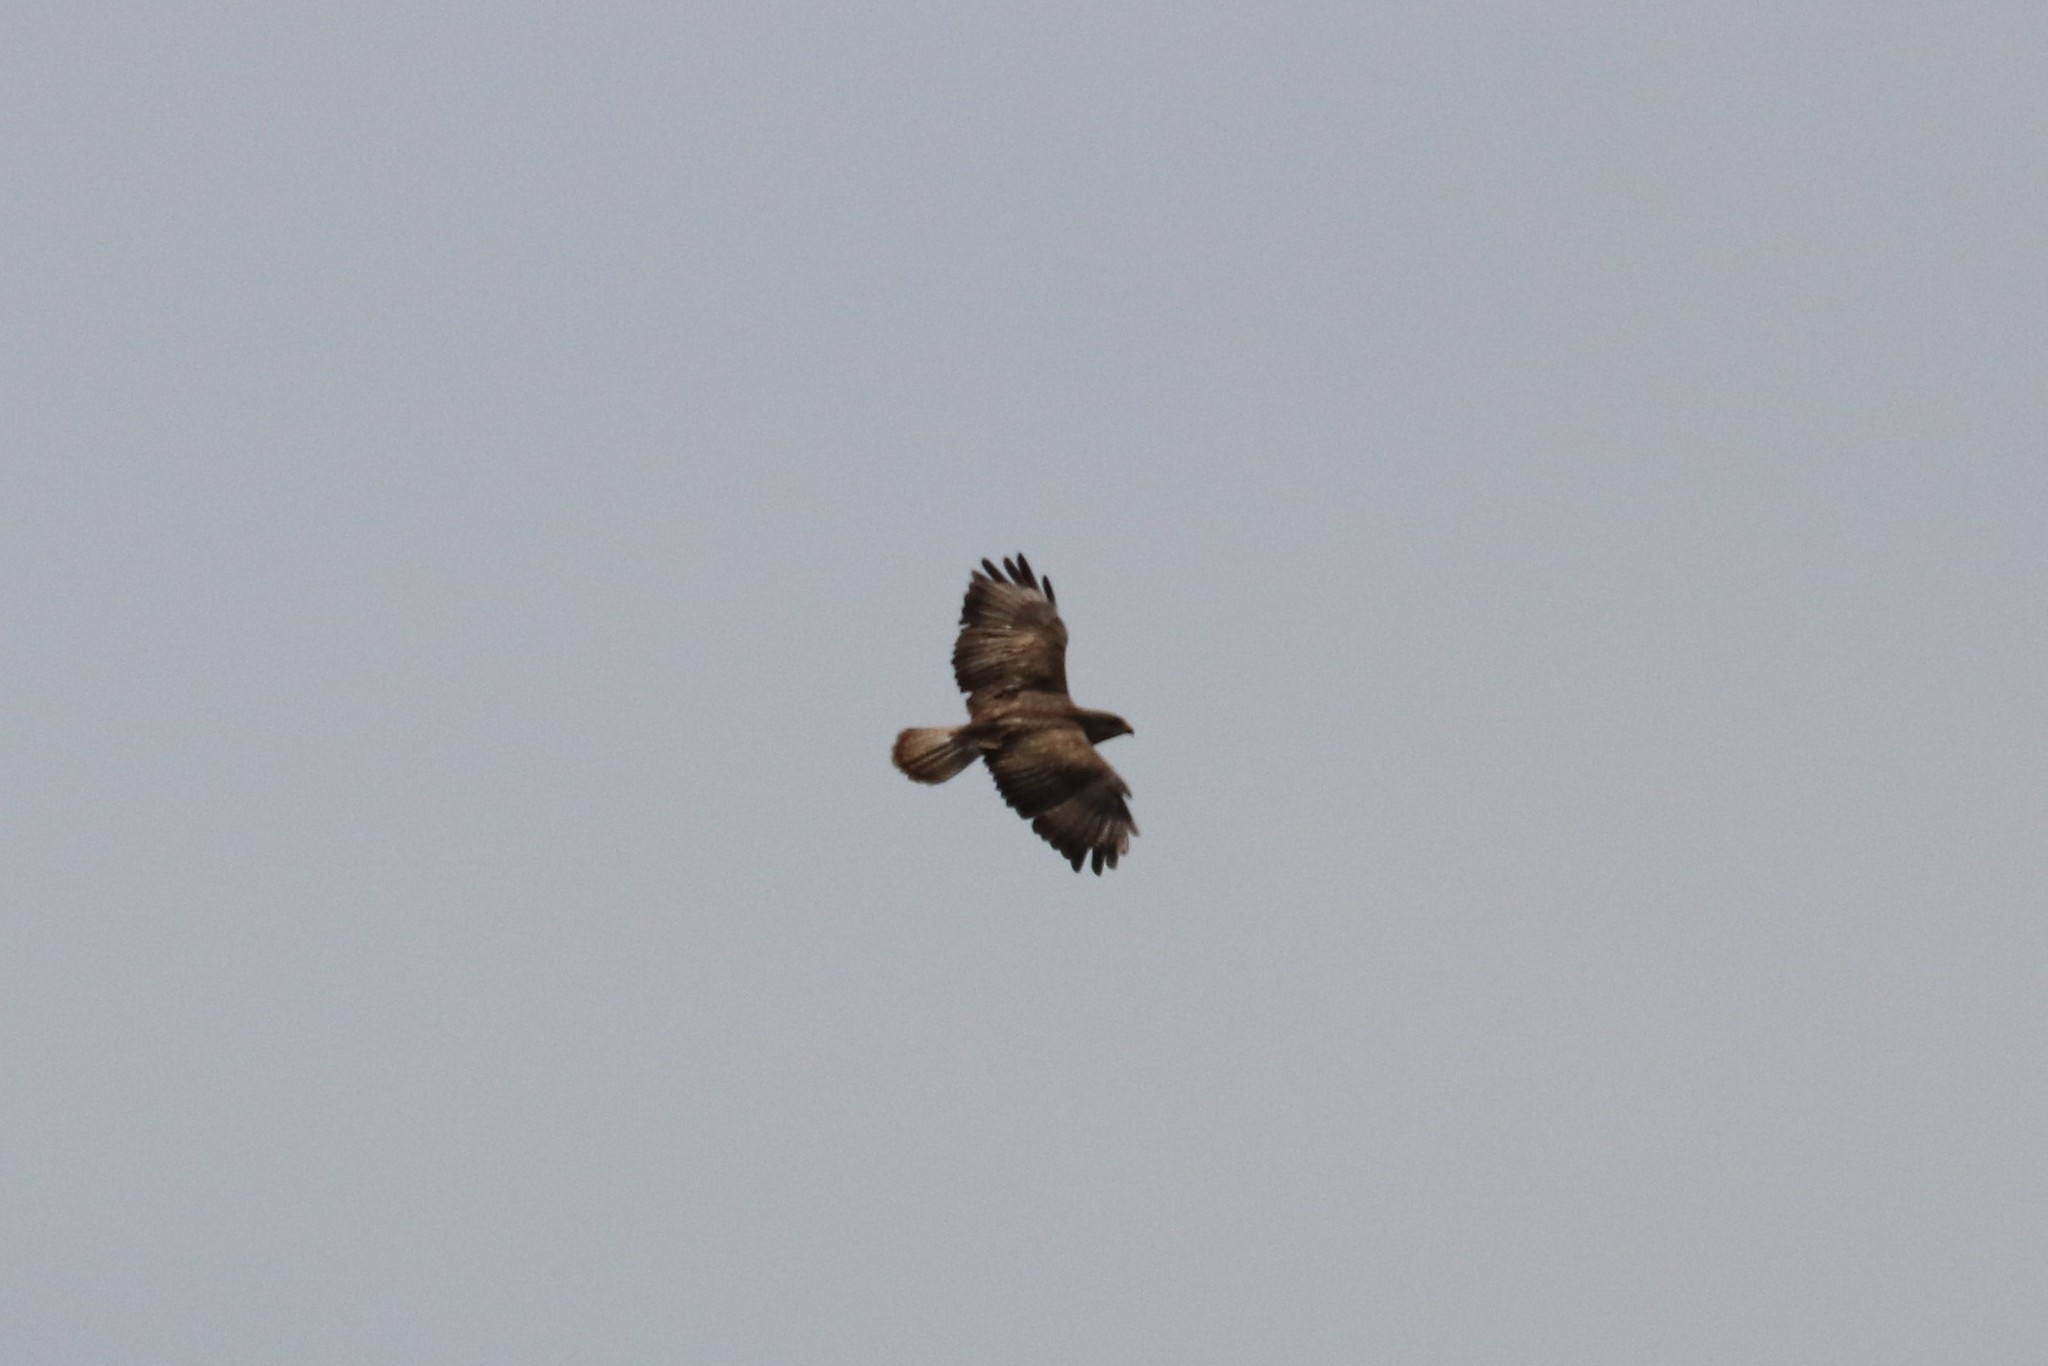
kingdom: Animalia
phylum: Chordata
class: Aves
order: Accipitriformes
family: Accipitridae
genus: Buteo
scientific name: Buteo buteo
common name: Common buzzard
